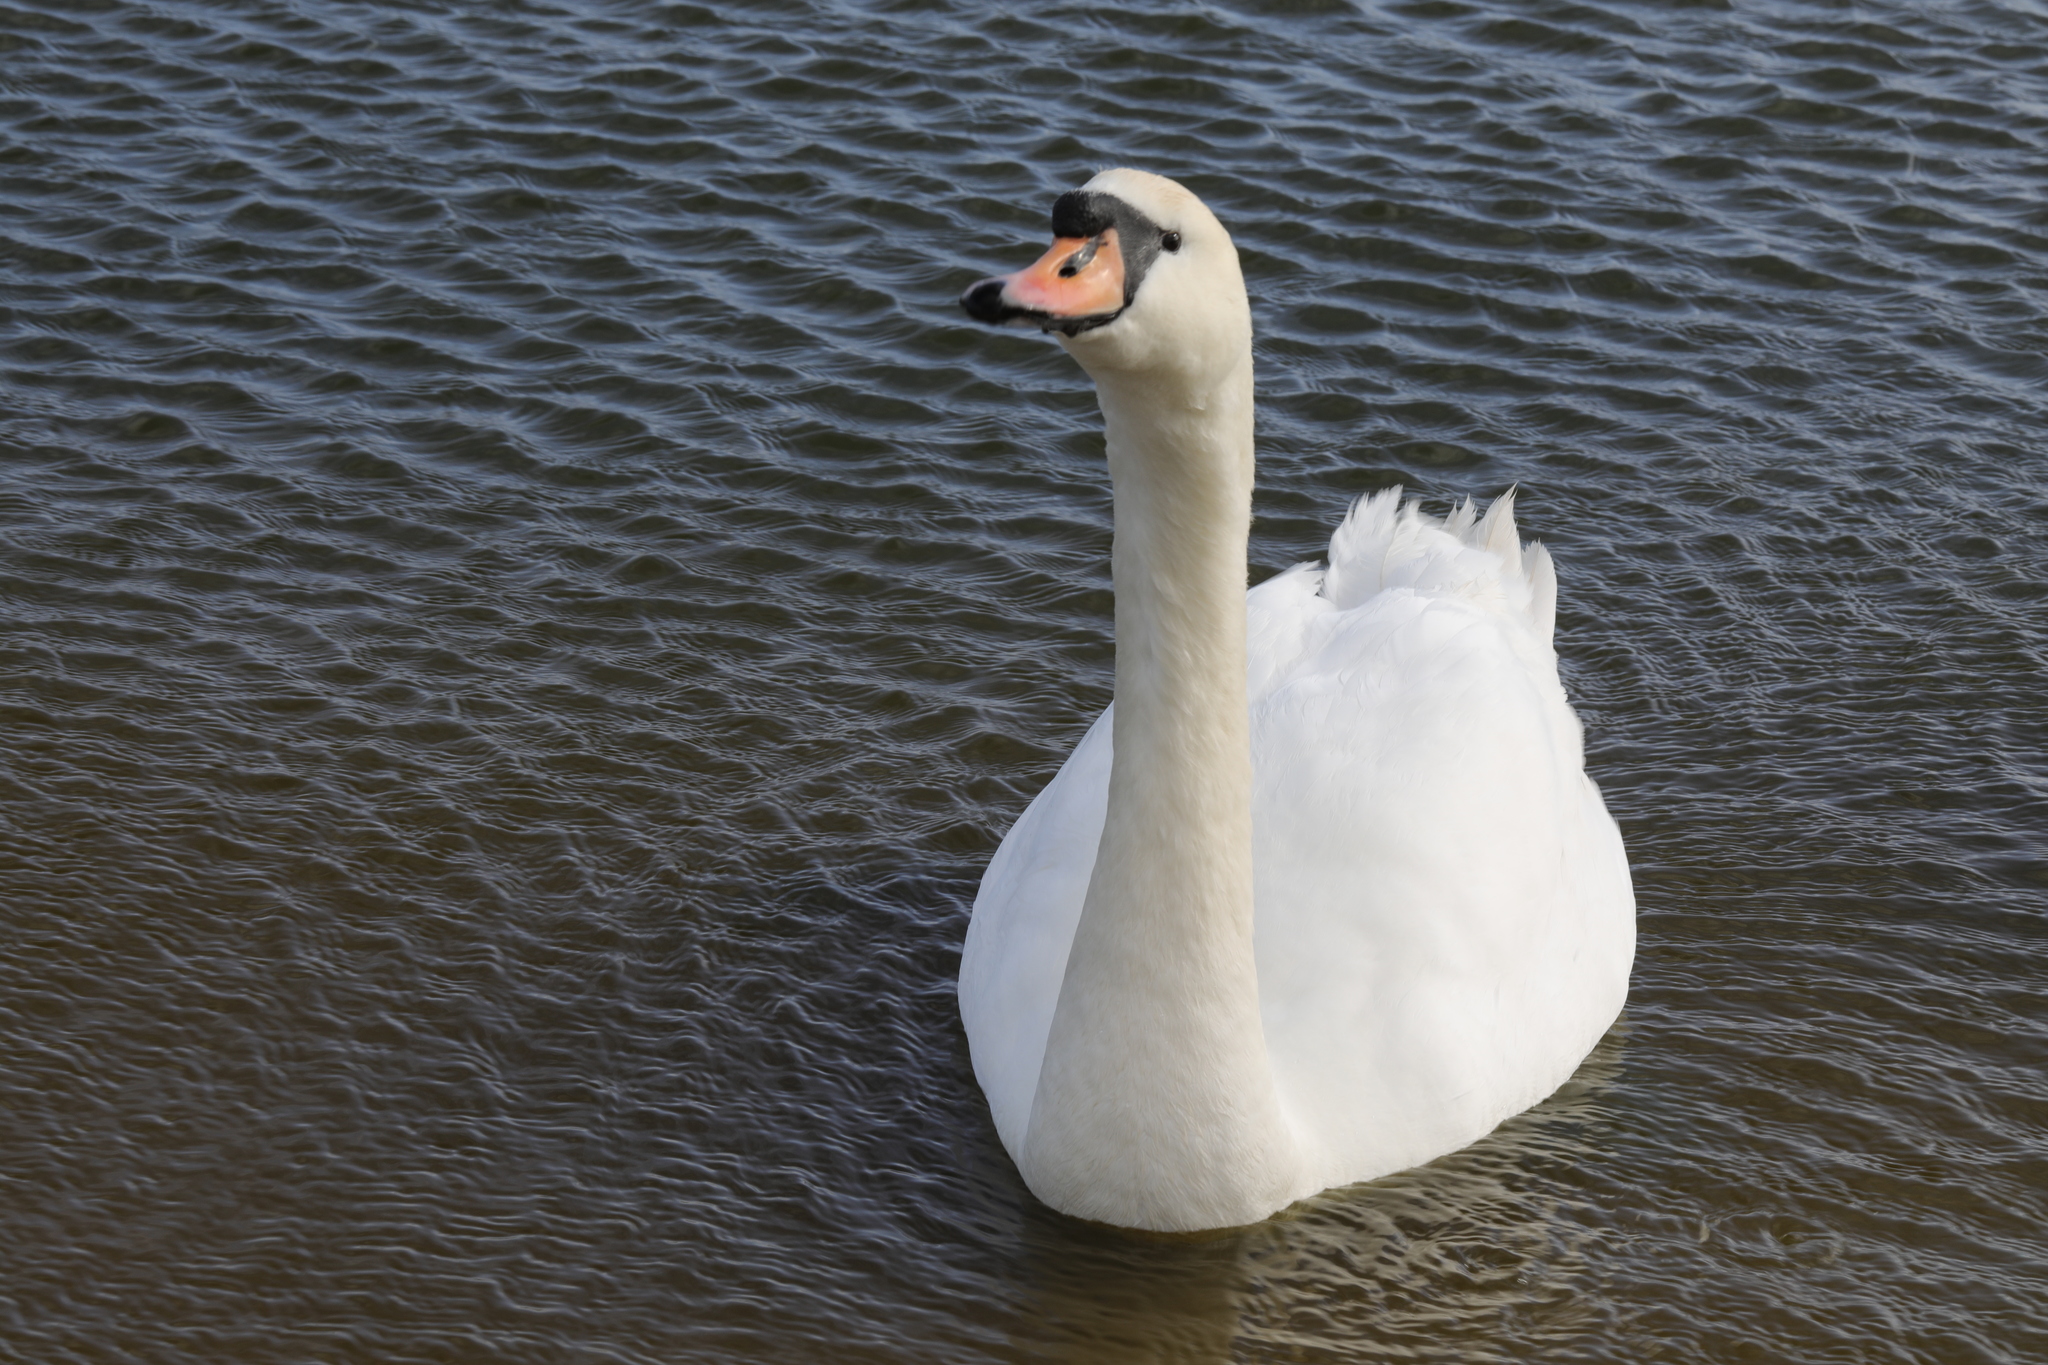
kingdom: Animalia
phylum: Chordata
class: Aves
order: Anseriformes
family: Anatidae
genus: Cygnus
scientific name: Cygnus olor
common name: Mute swan
